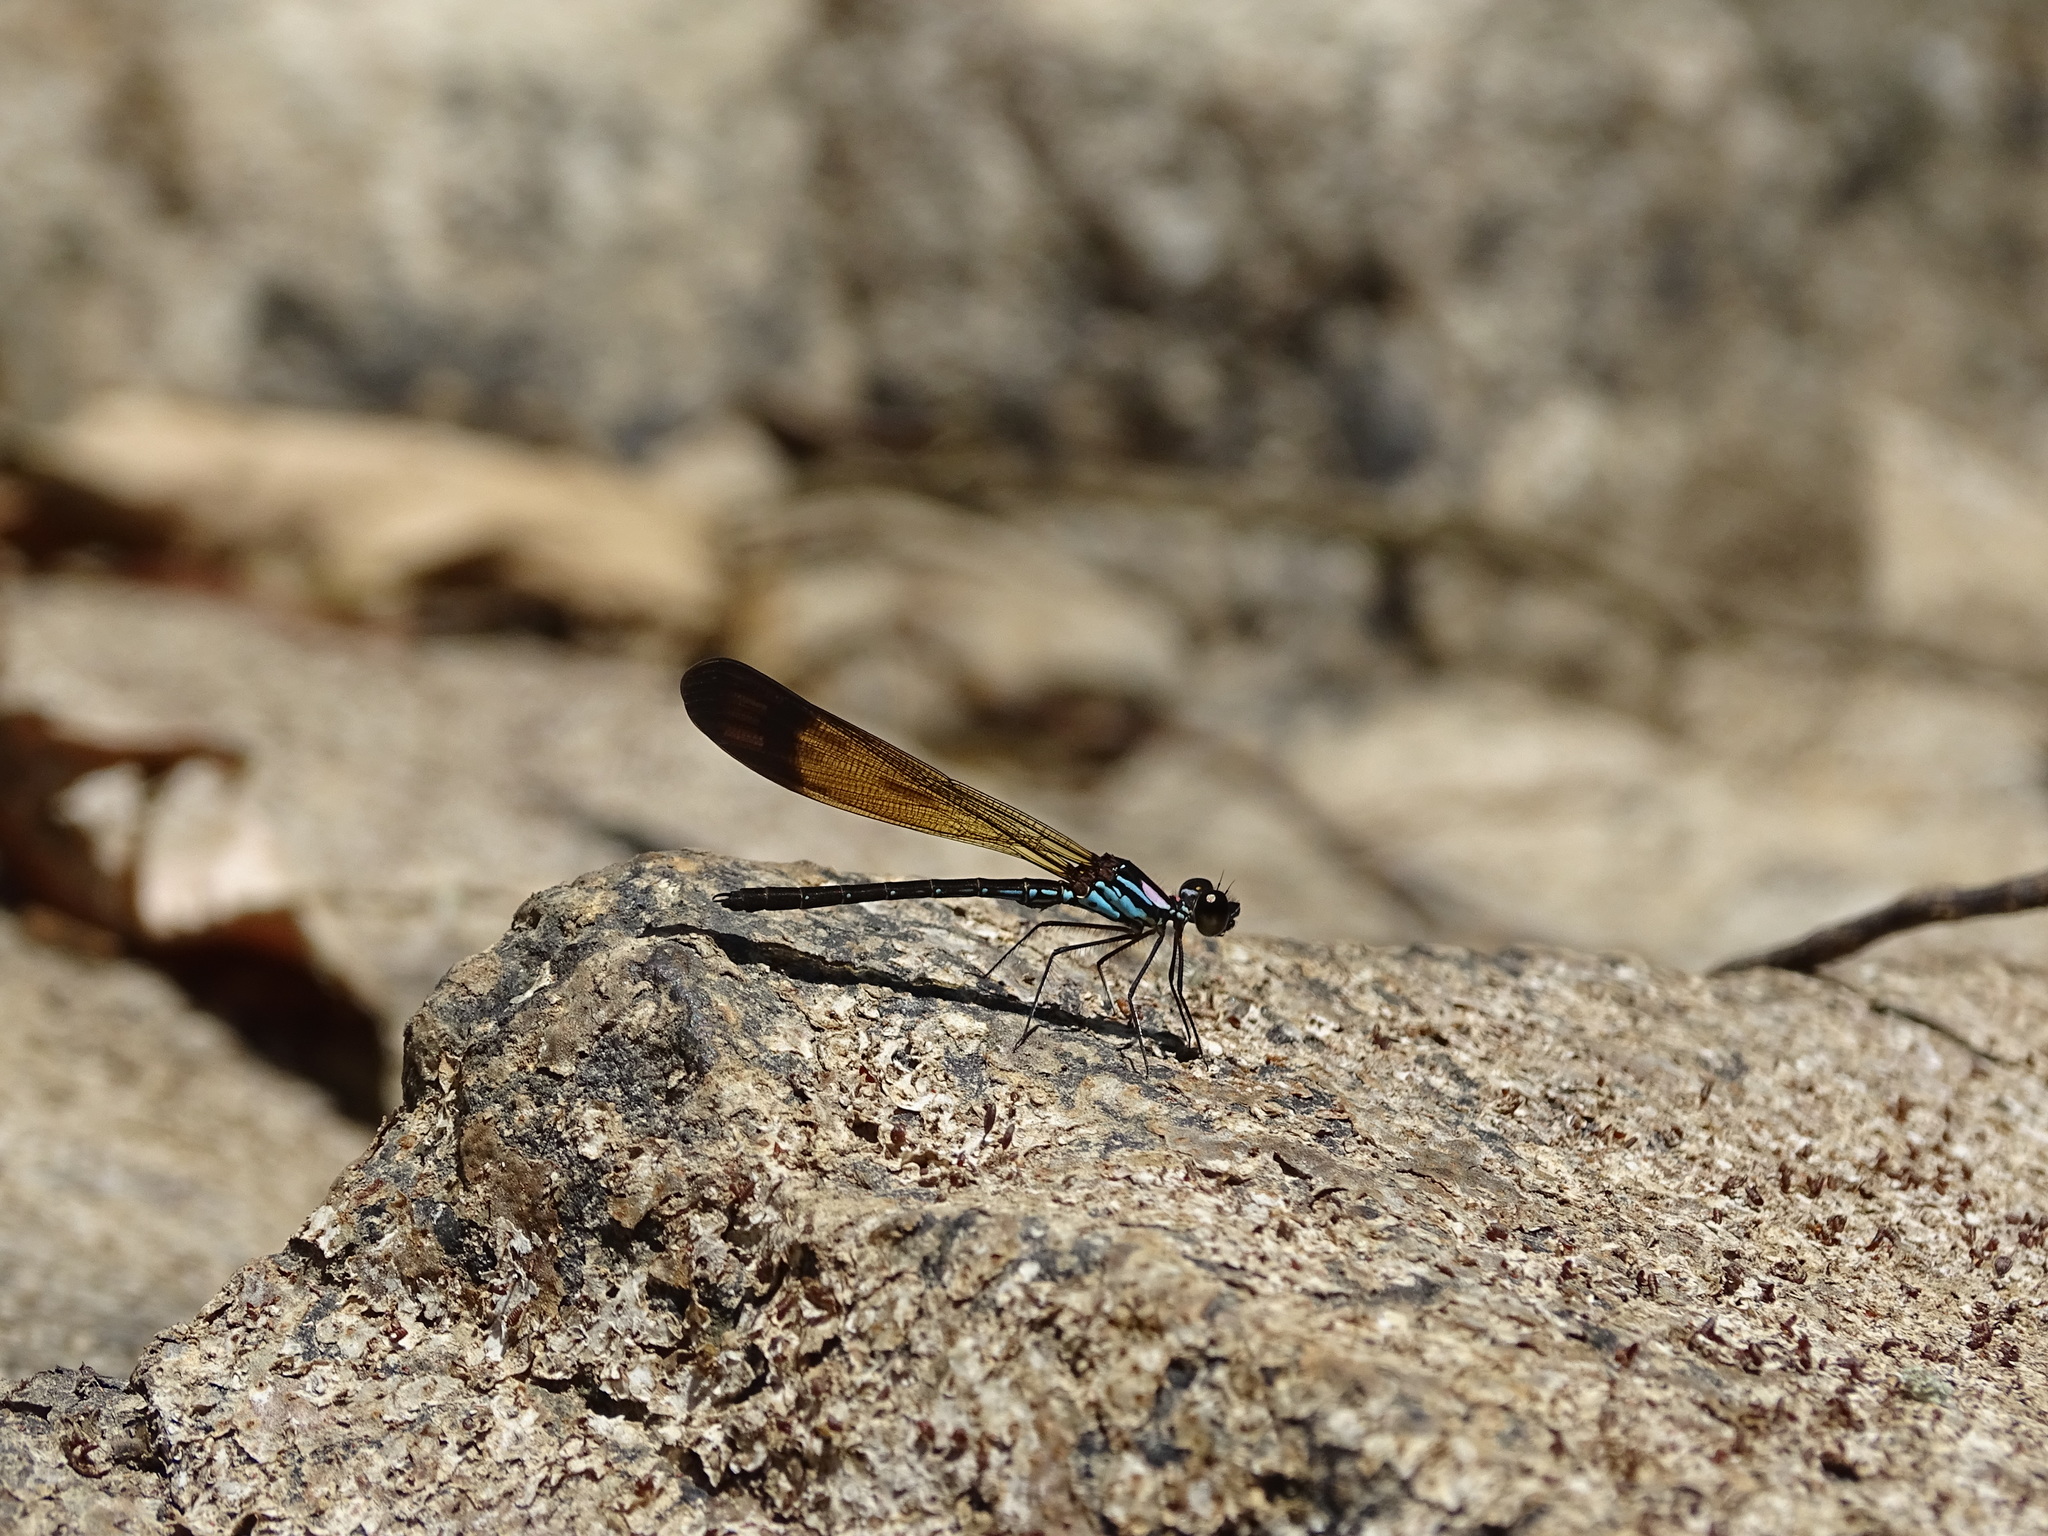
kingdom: Animalia
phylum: Arthropoda
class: Insecta
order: Odonata
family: Chlorocyphidae
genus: Heliocypha
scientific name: Heliocypha biforata
